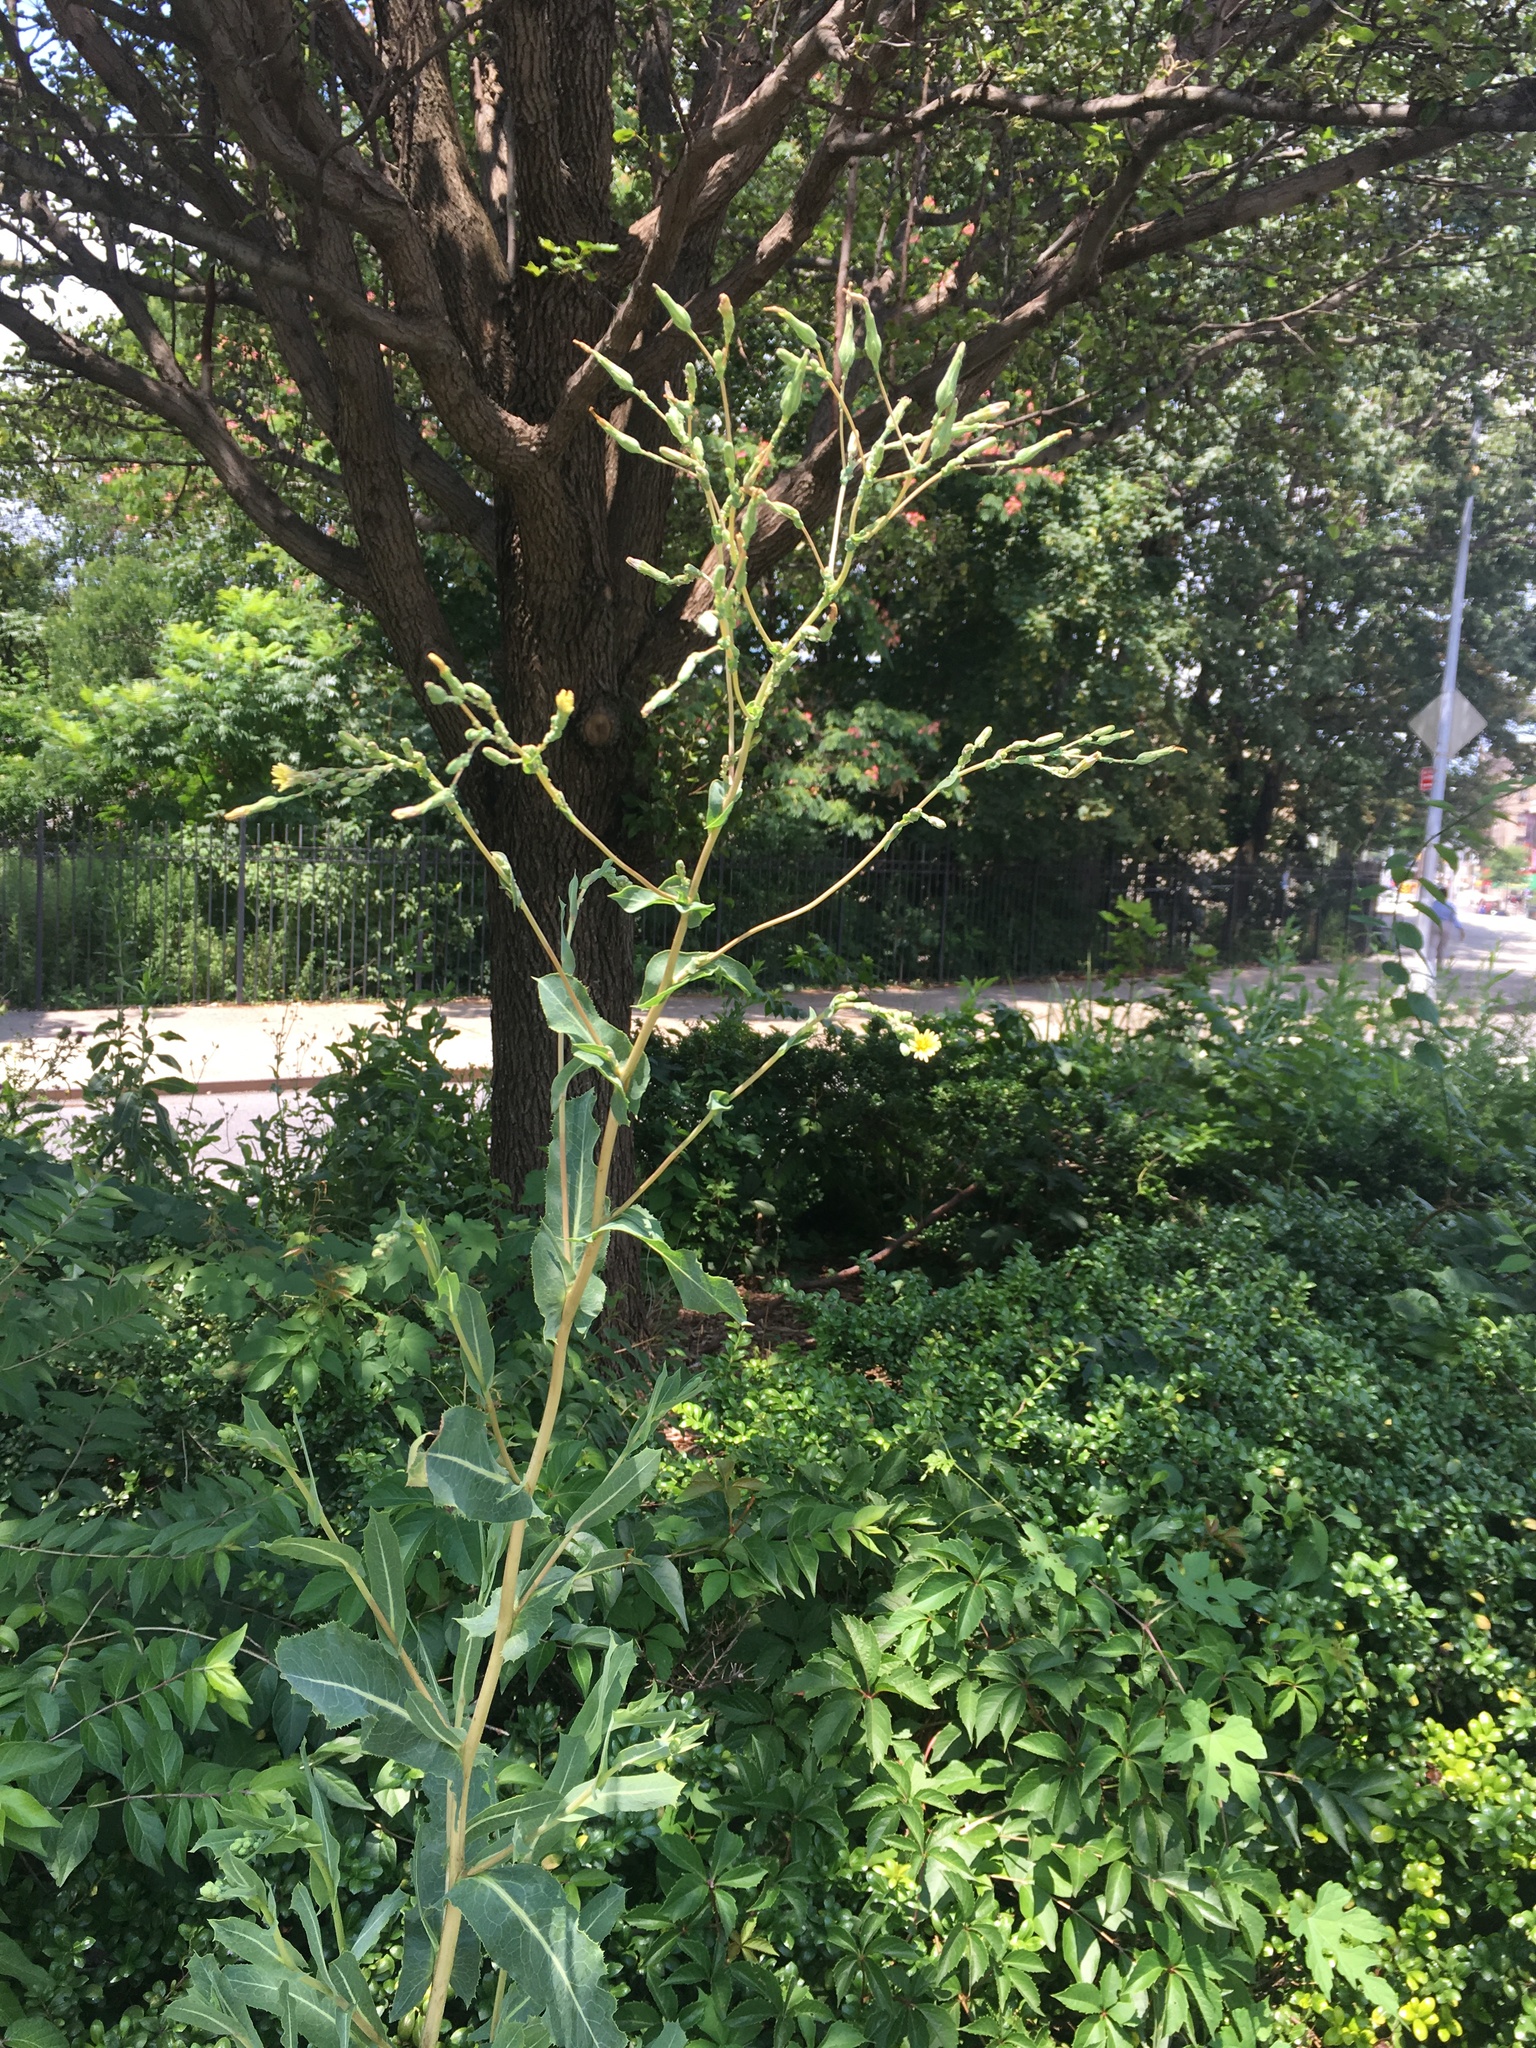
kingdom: Plantae
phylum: Tracheophyta
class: Magnoliopsida
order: Asterales
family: Asteraceae
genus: Lactuca
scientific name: Lactuca serriola
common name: Prickly lettuce
